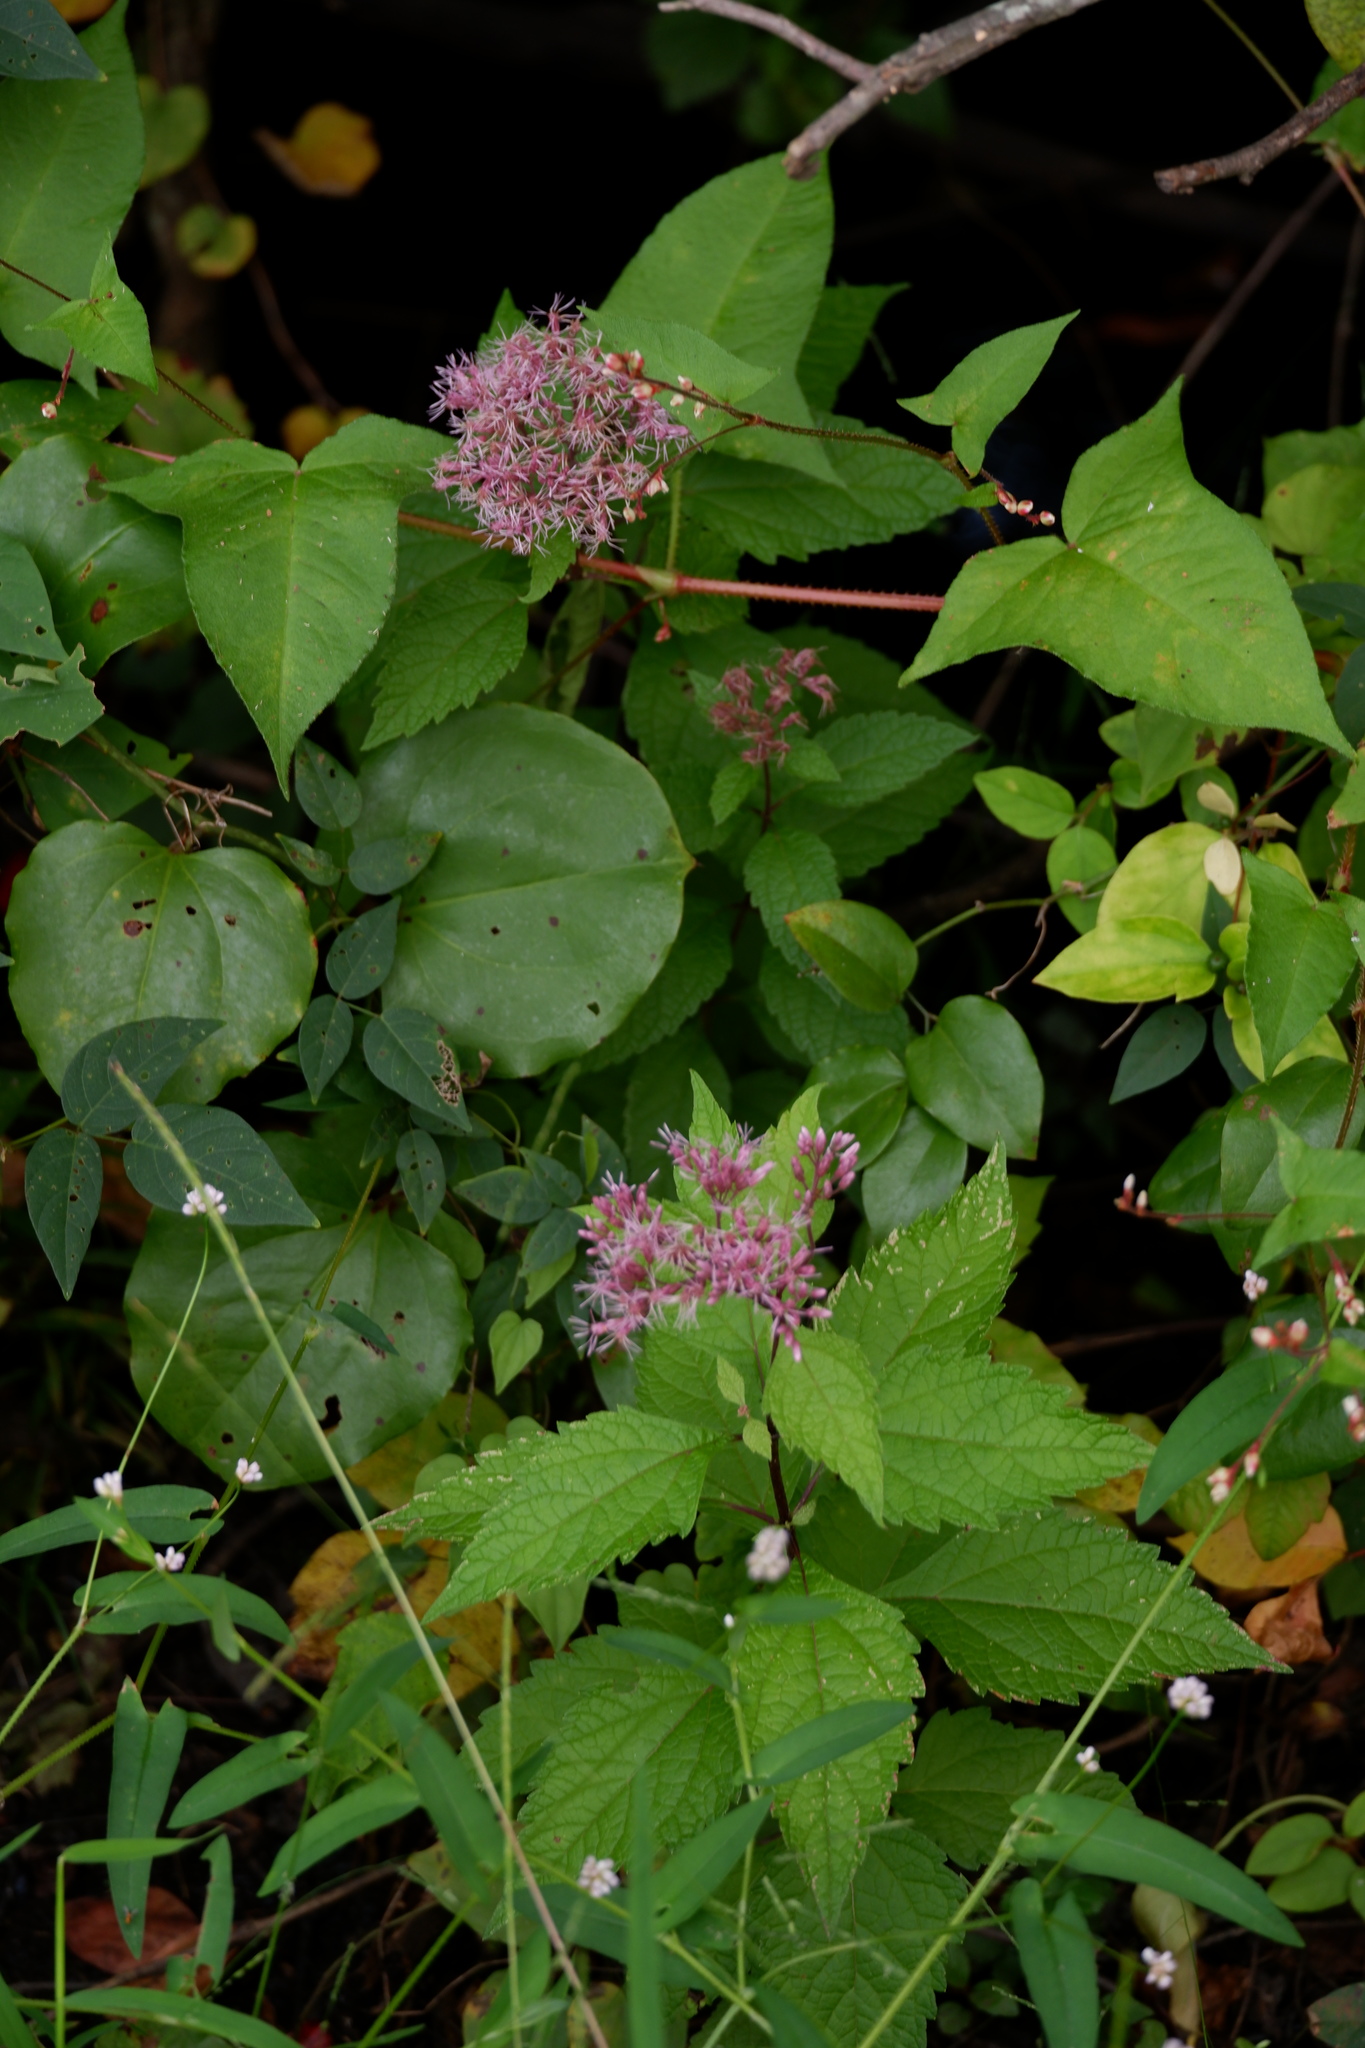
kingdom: Plantae
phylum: Tracheophyta
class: Magnoliopsida
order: Asterales
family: Asteraceae
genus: Eutrochium
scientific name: Eutrochium dubium
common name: Coastal plain joe pye weed
